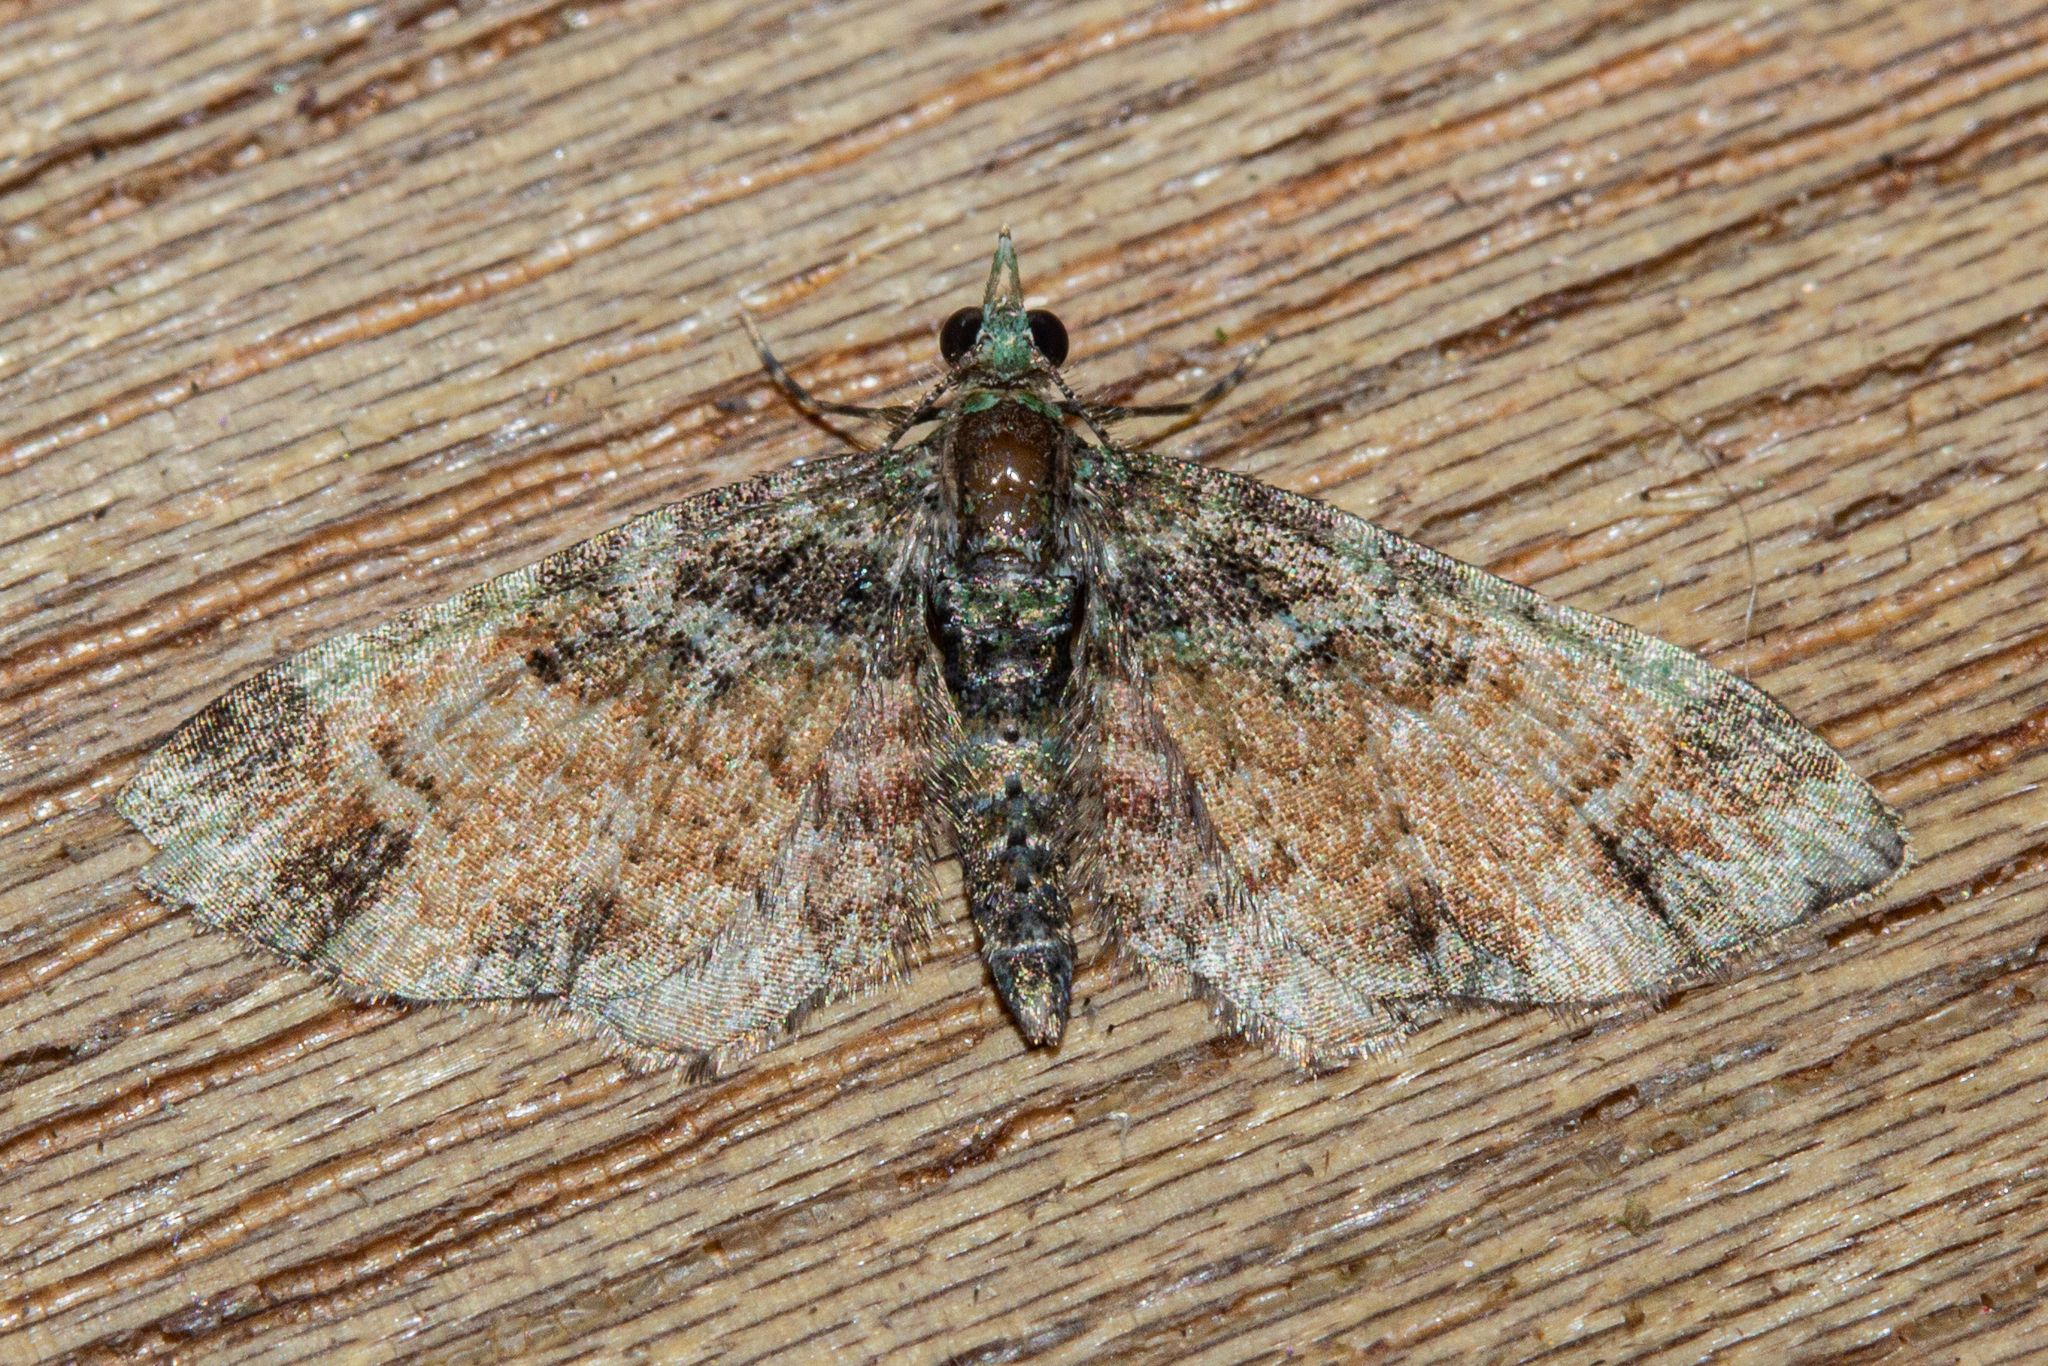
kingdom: Animalia
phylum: Arthropoda
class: Insecta
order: Lepidoptera
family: Geometridae
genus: Idaea
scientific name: Idaea mutanda
